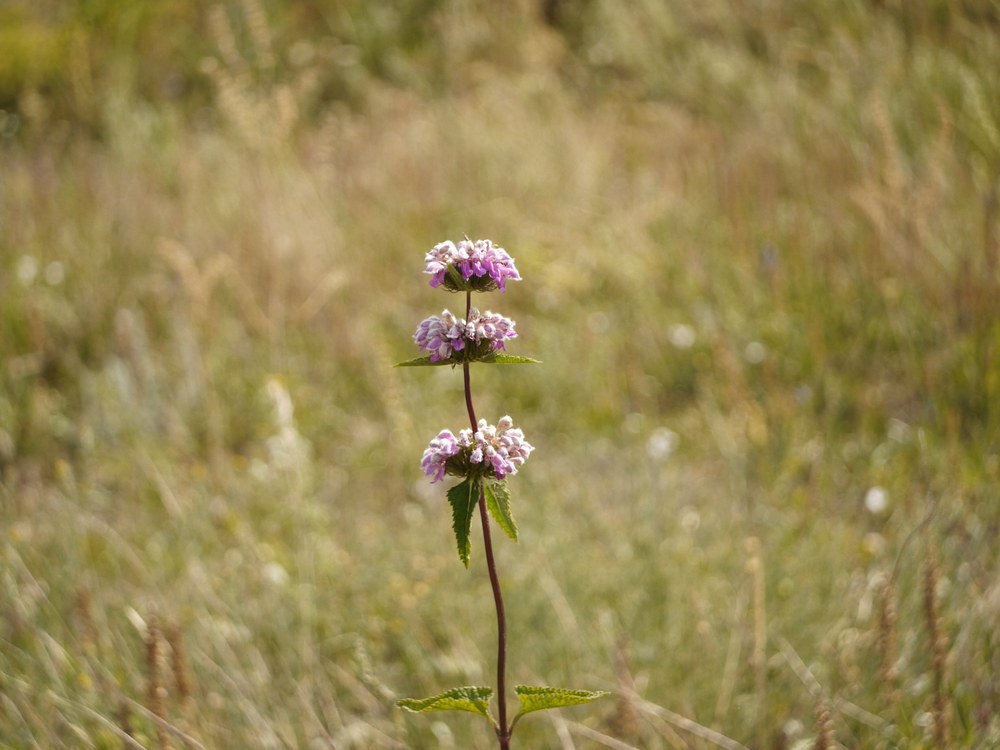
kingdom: Plantae
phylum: Tracheophyta
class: Magnoliopsida
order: Lamiales
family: Lamiaceae
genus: Phlomoides
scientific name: Phlomoides tuberosa
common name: Tuberous jerusalem sage
